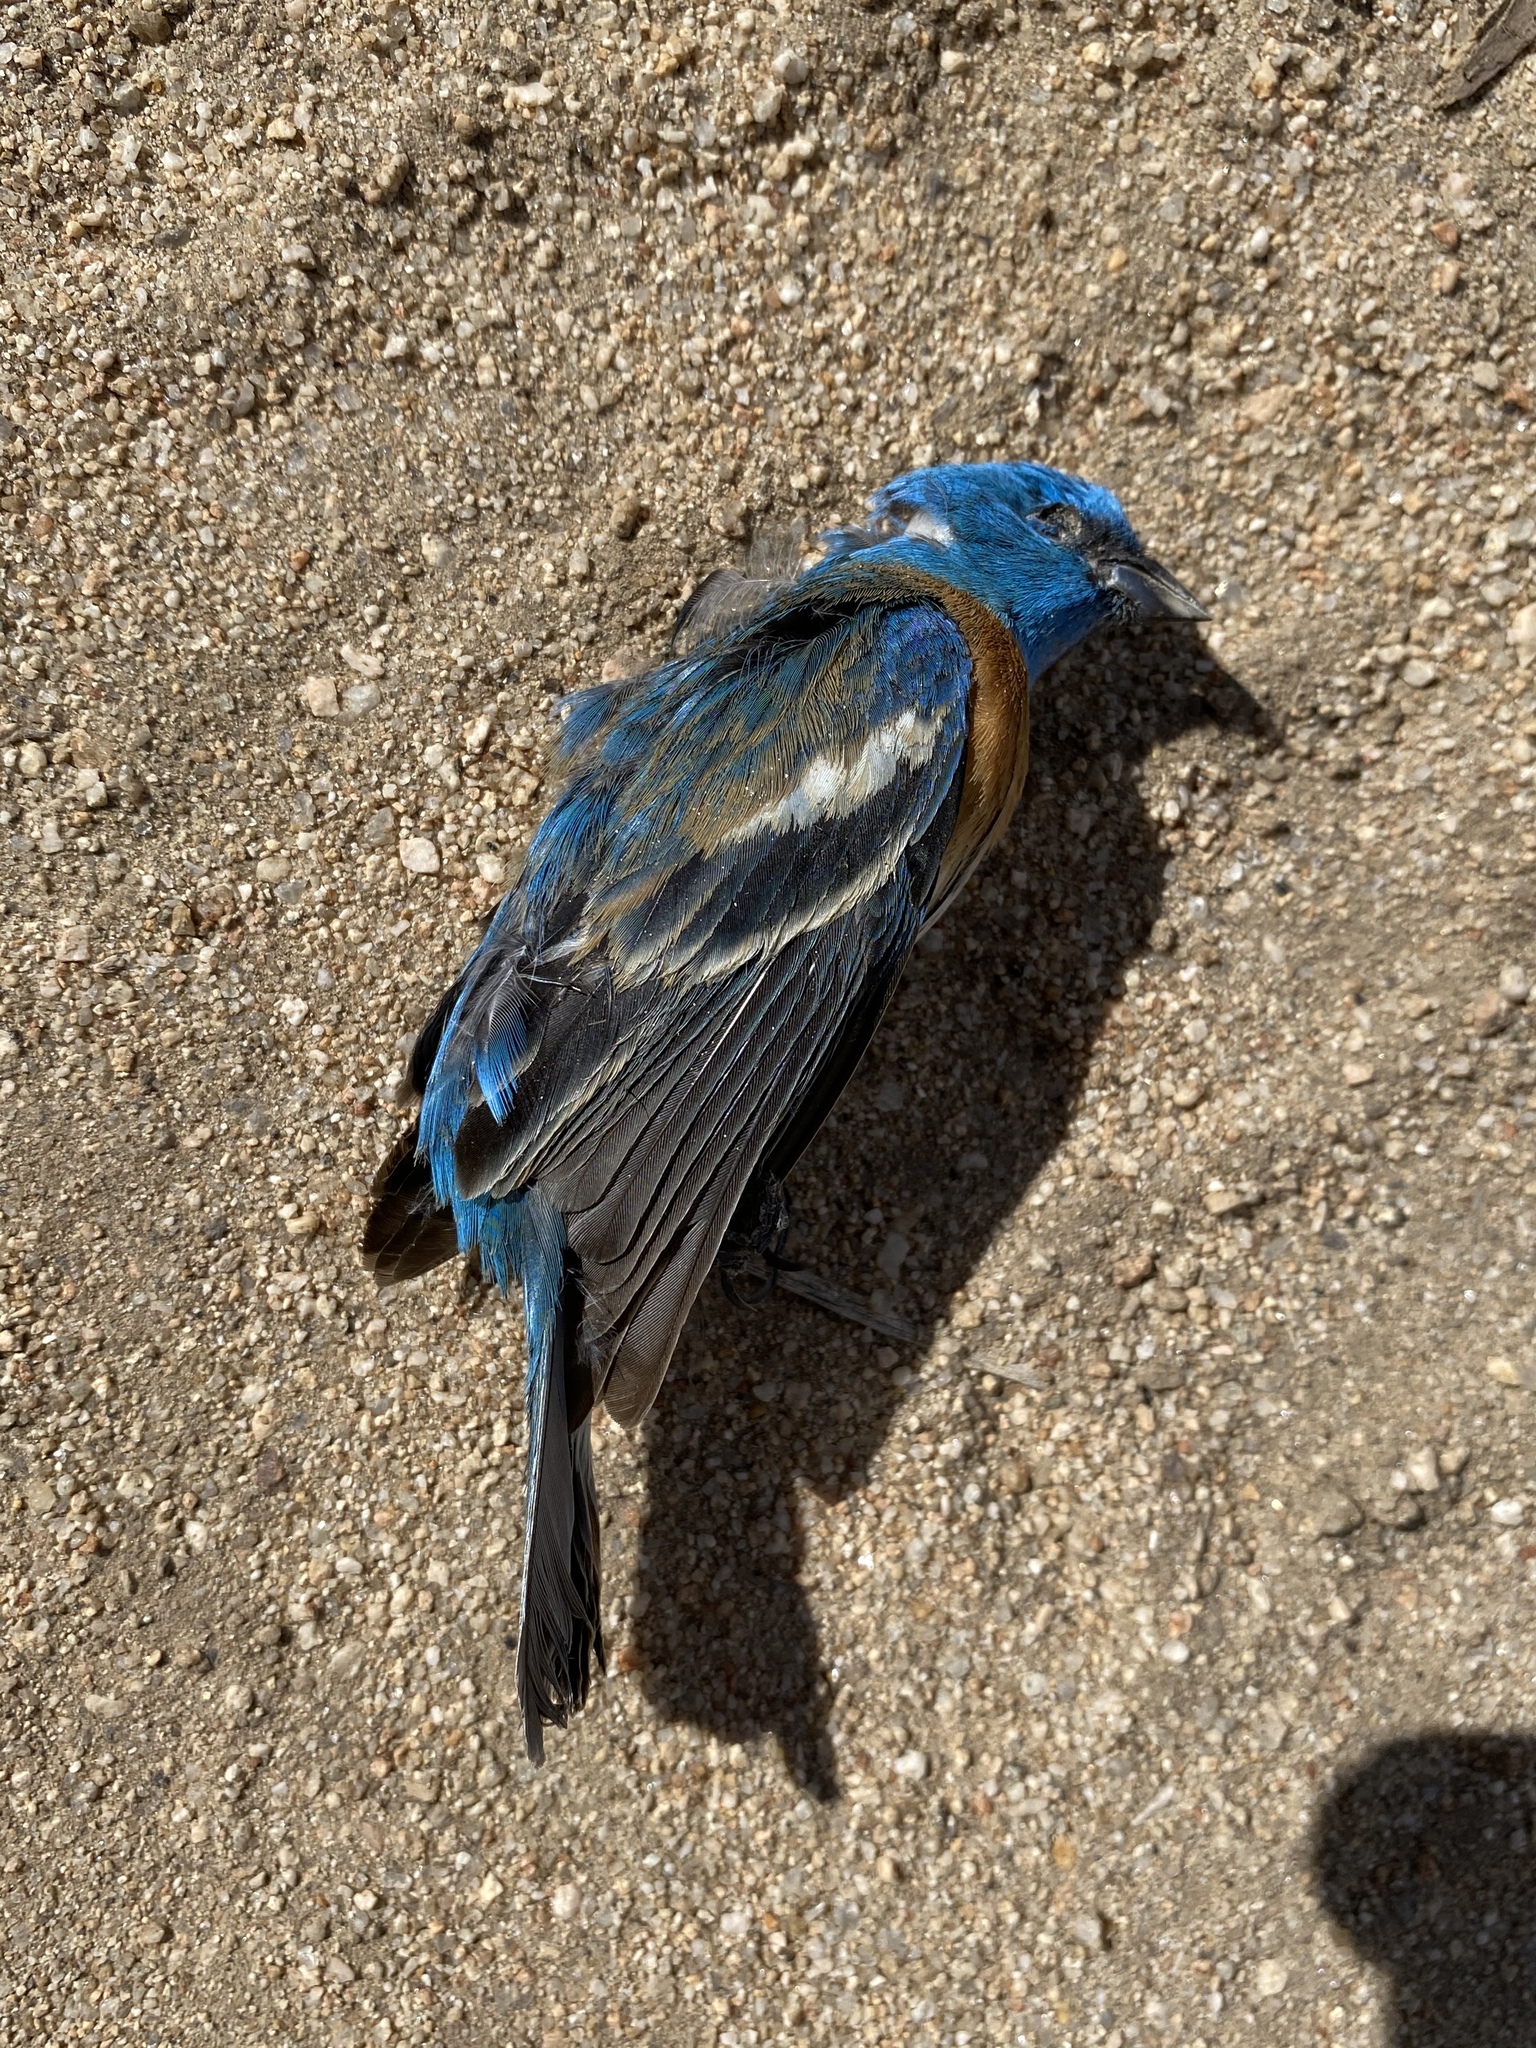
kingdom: Animalia
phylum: Chordata
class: Aves
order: Passeriformes
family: Cardinalidae
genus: Passerina
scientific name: Passerina amoena
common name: Lazuli bunting
